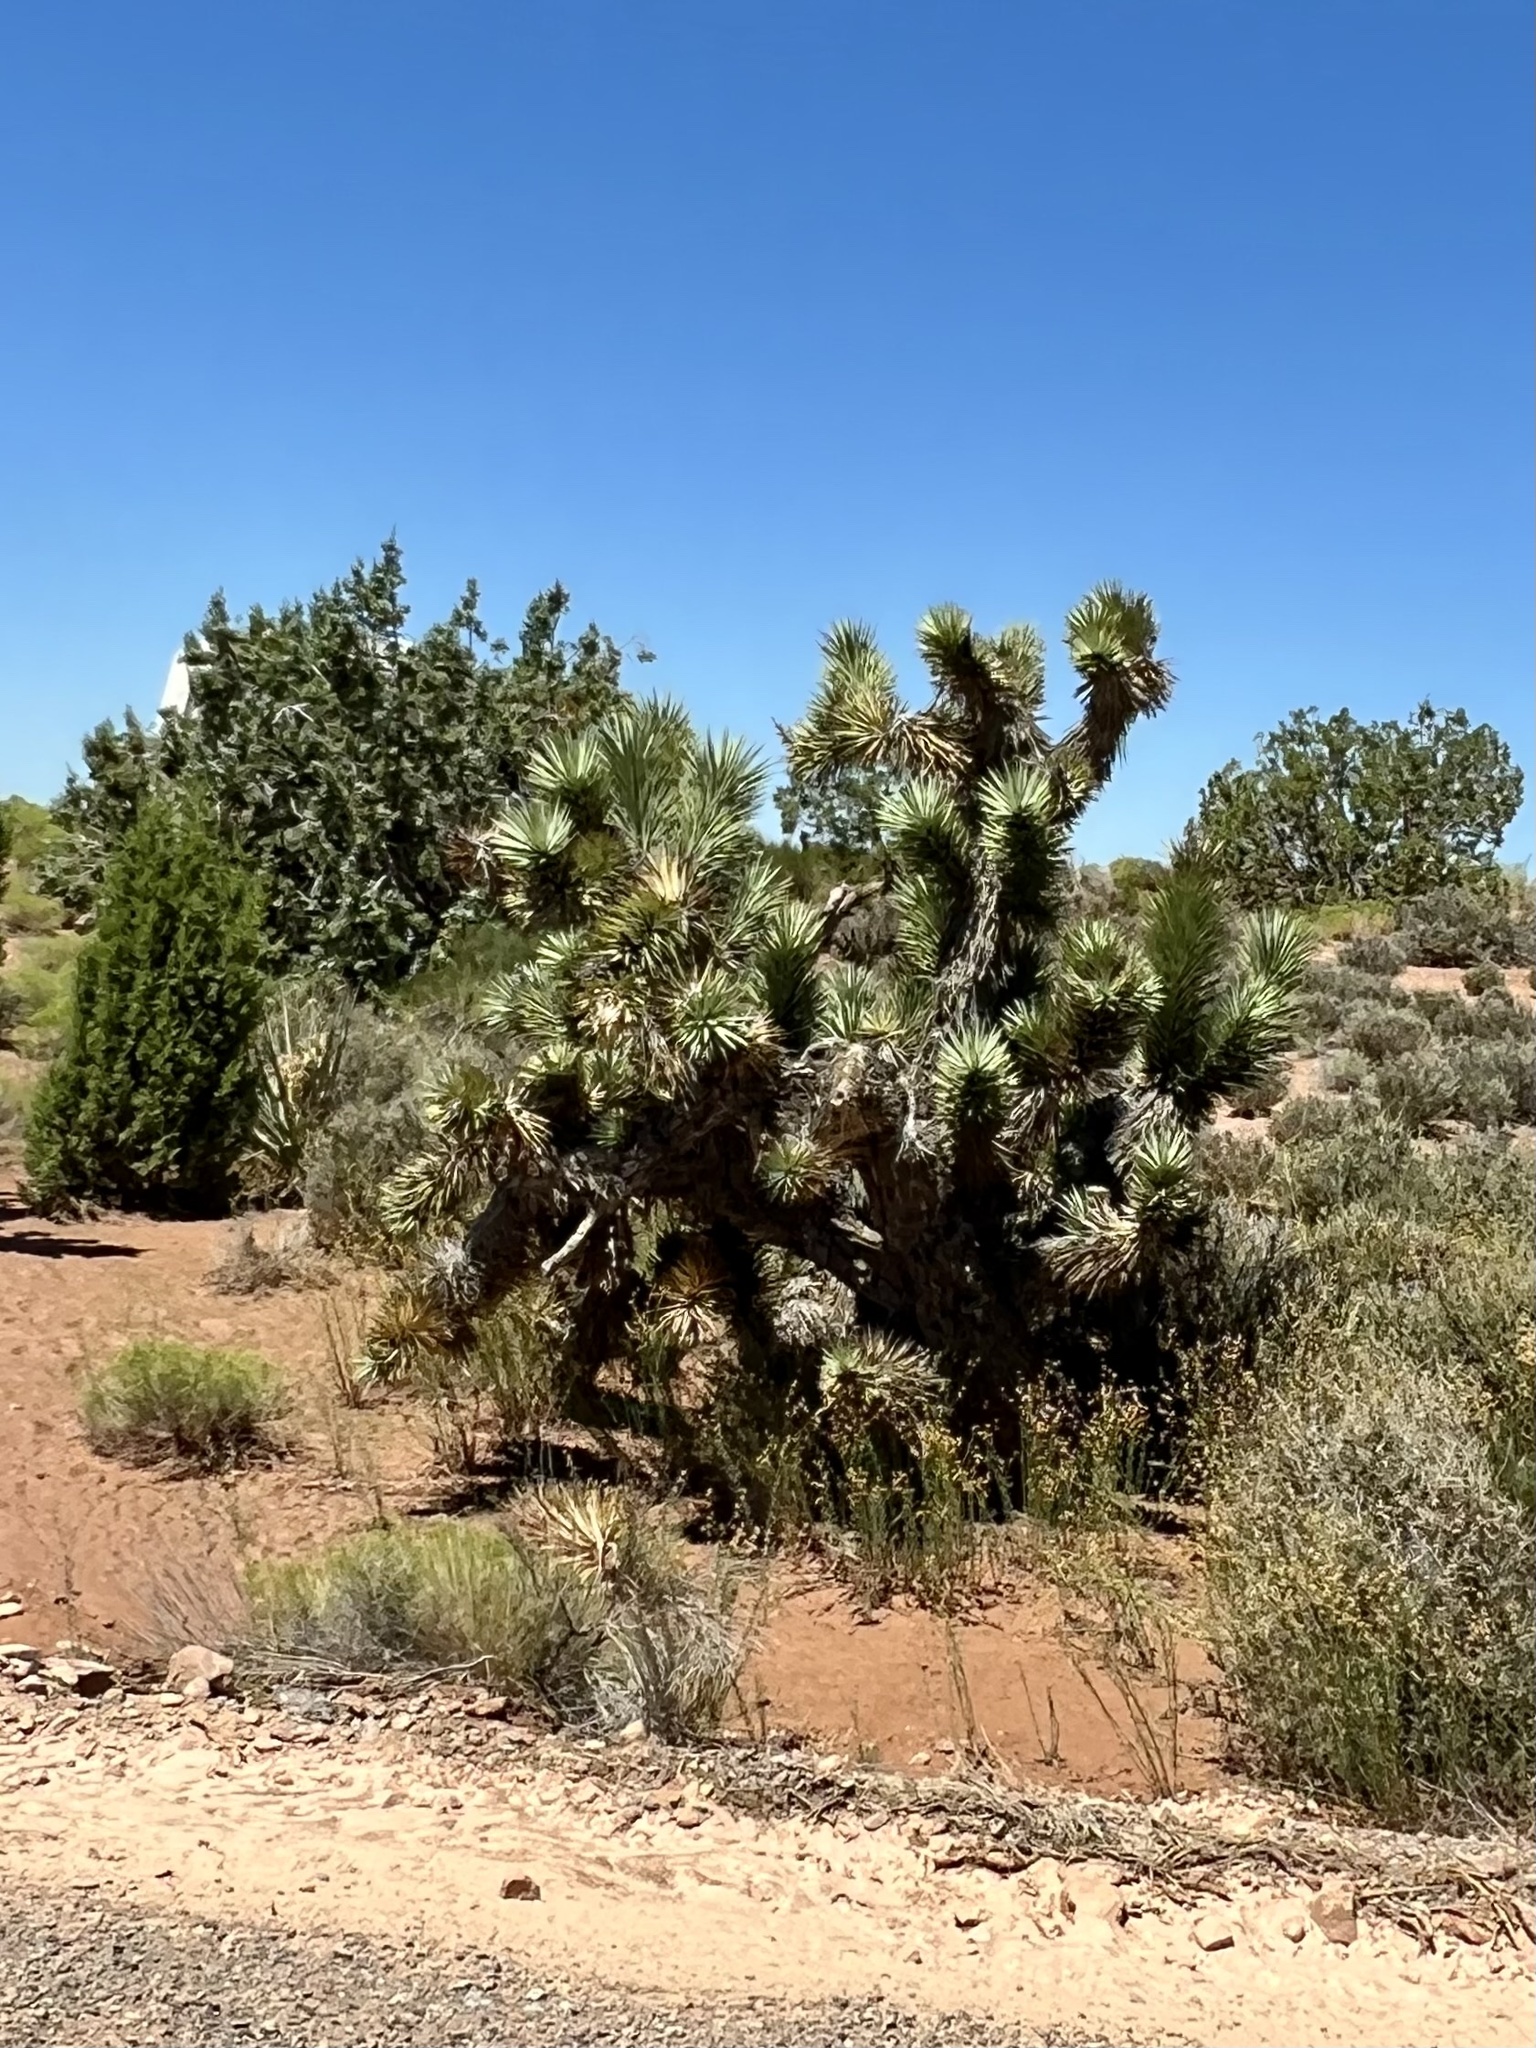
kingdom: Plantae
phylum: Tracheophyta
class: Liliopsida
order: Asparagales
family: Asparagaceae
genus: Yucca
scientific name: Yucca brevifolia
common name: Joshua tree
